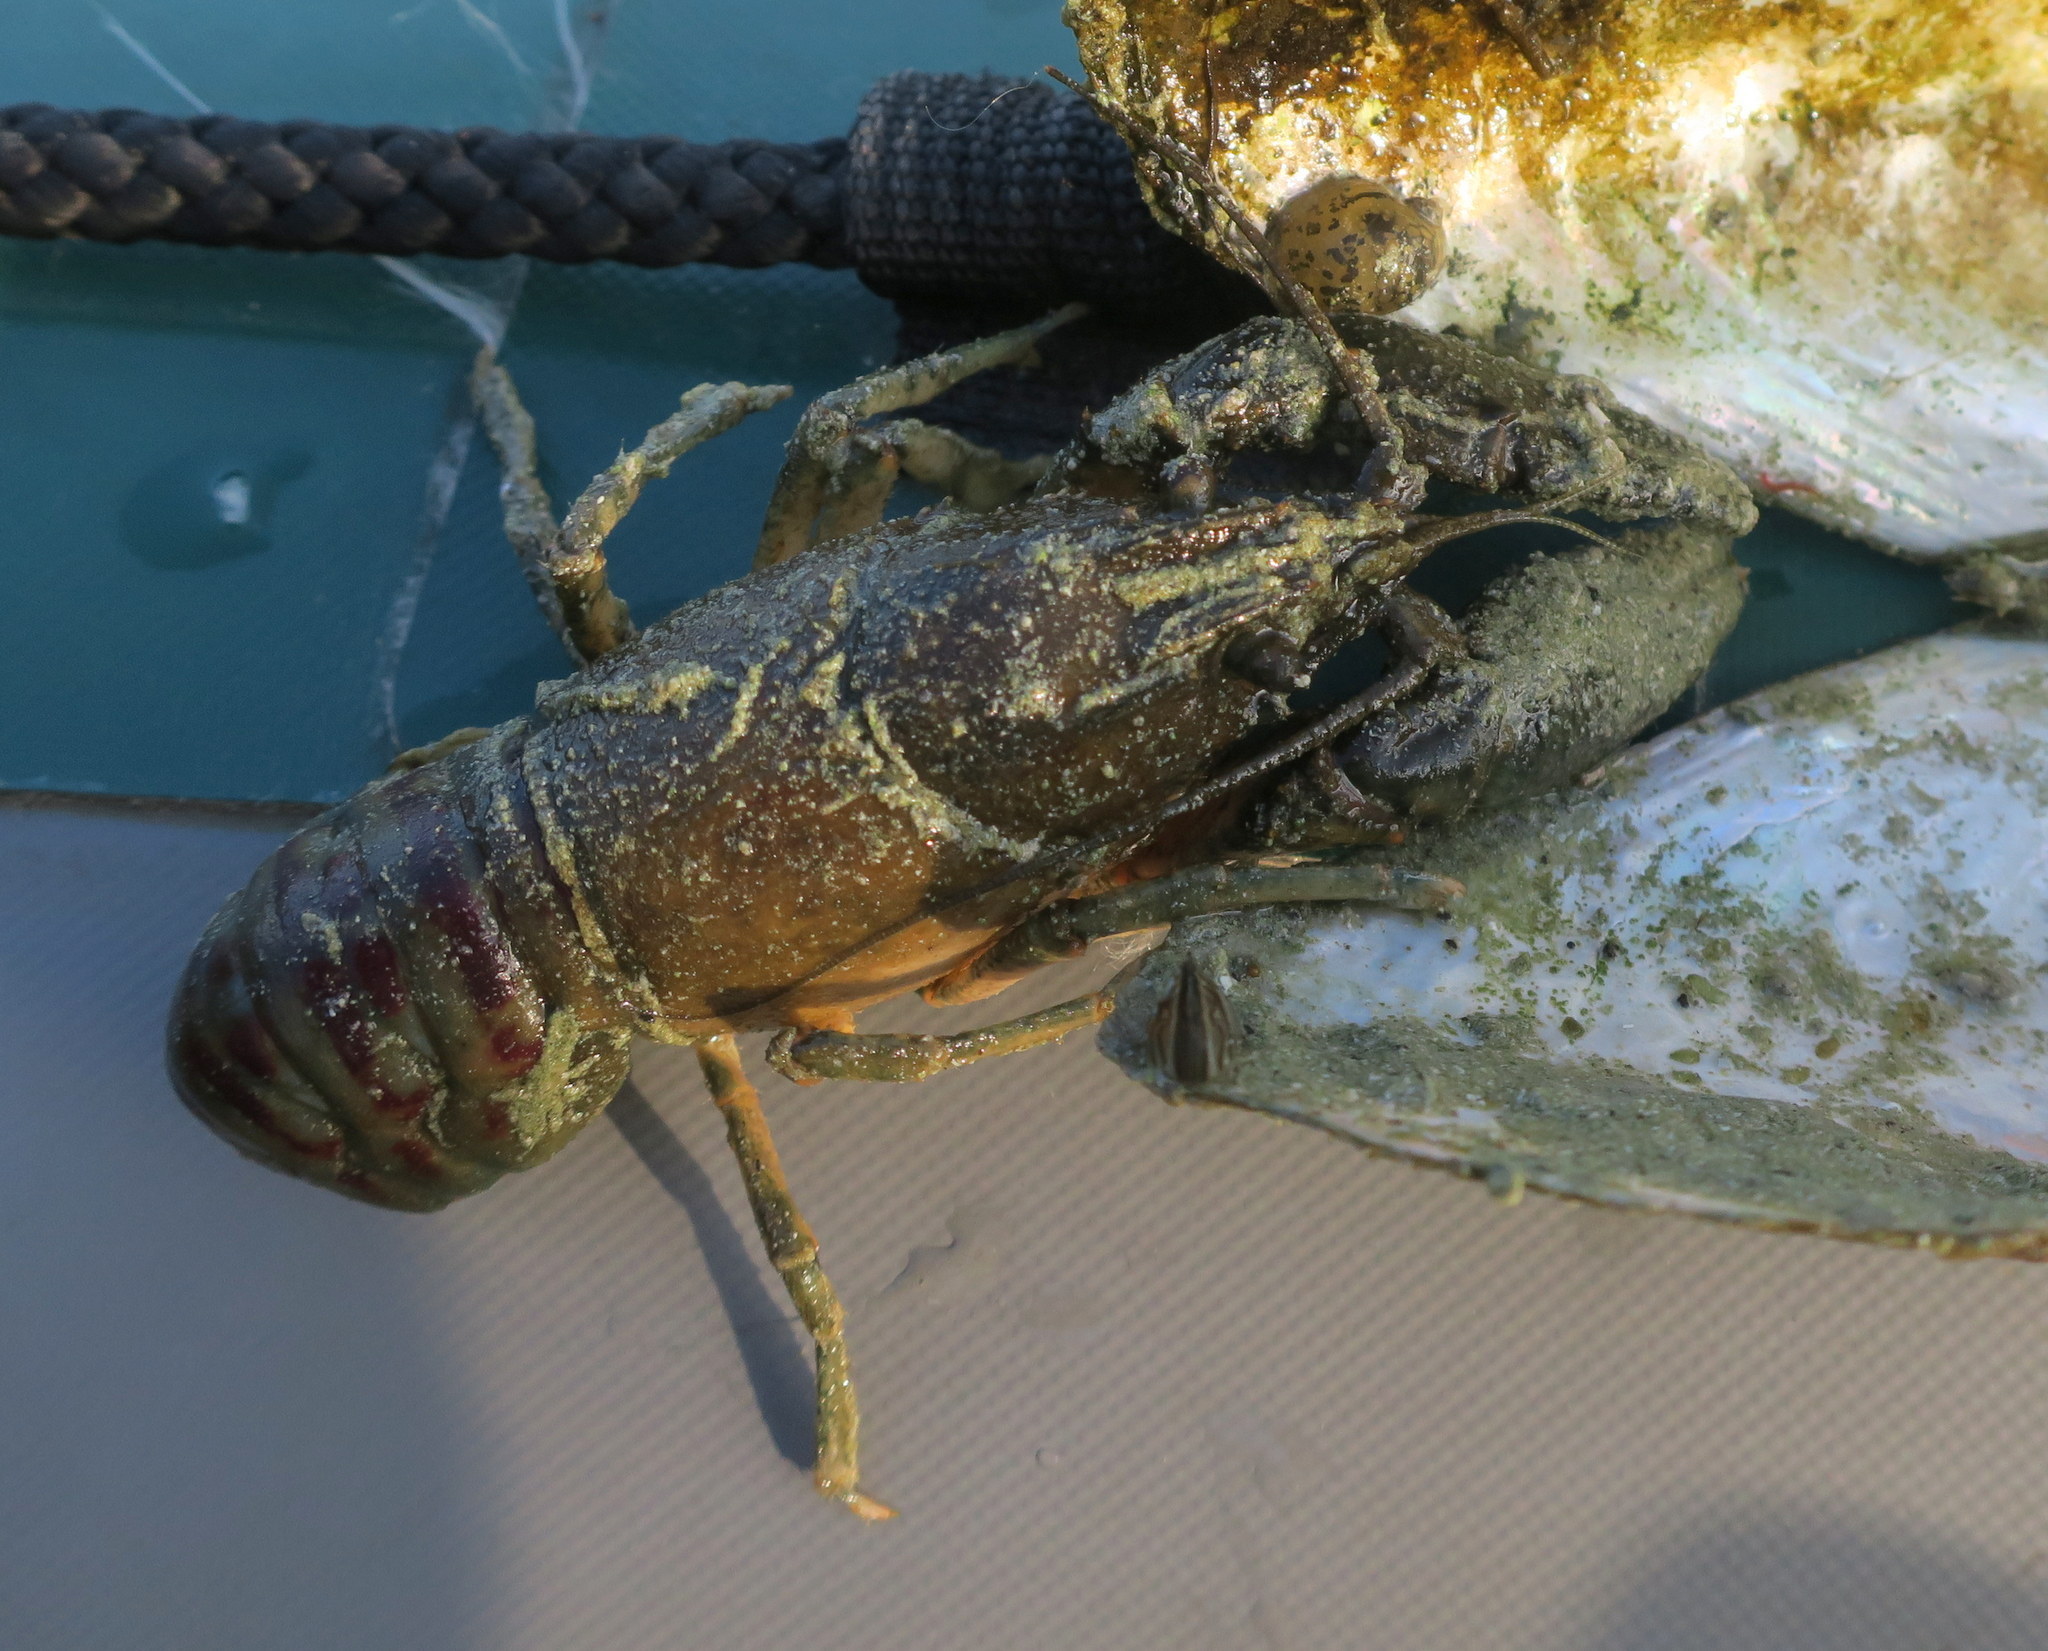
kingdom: Animalia
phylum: Arthropoda
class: Malacostraca
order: Decapoda
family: Cambaridae
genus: Faxonius
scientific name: Faxonius limosus
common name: American crayfish
